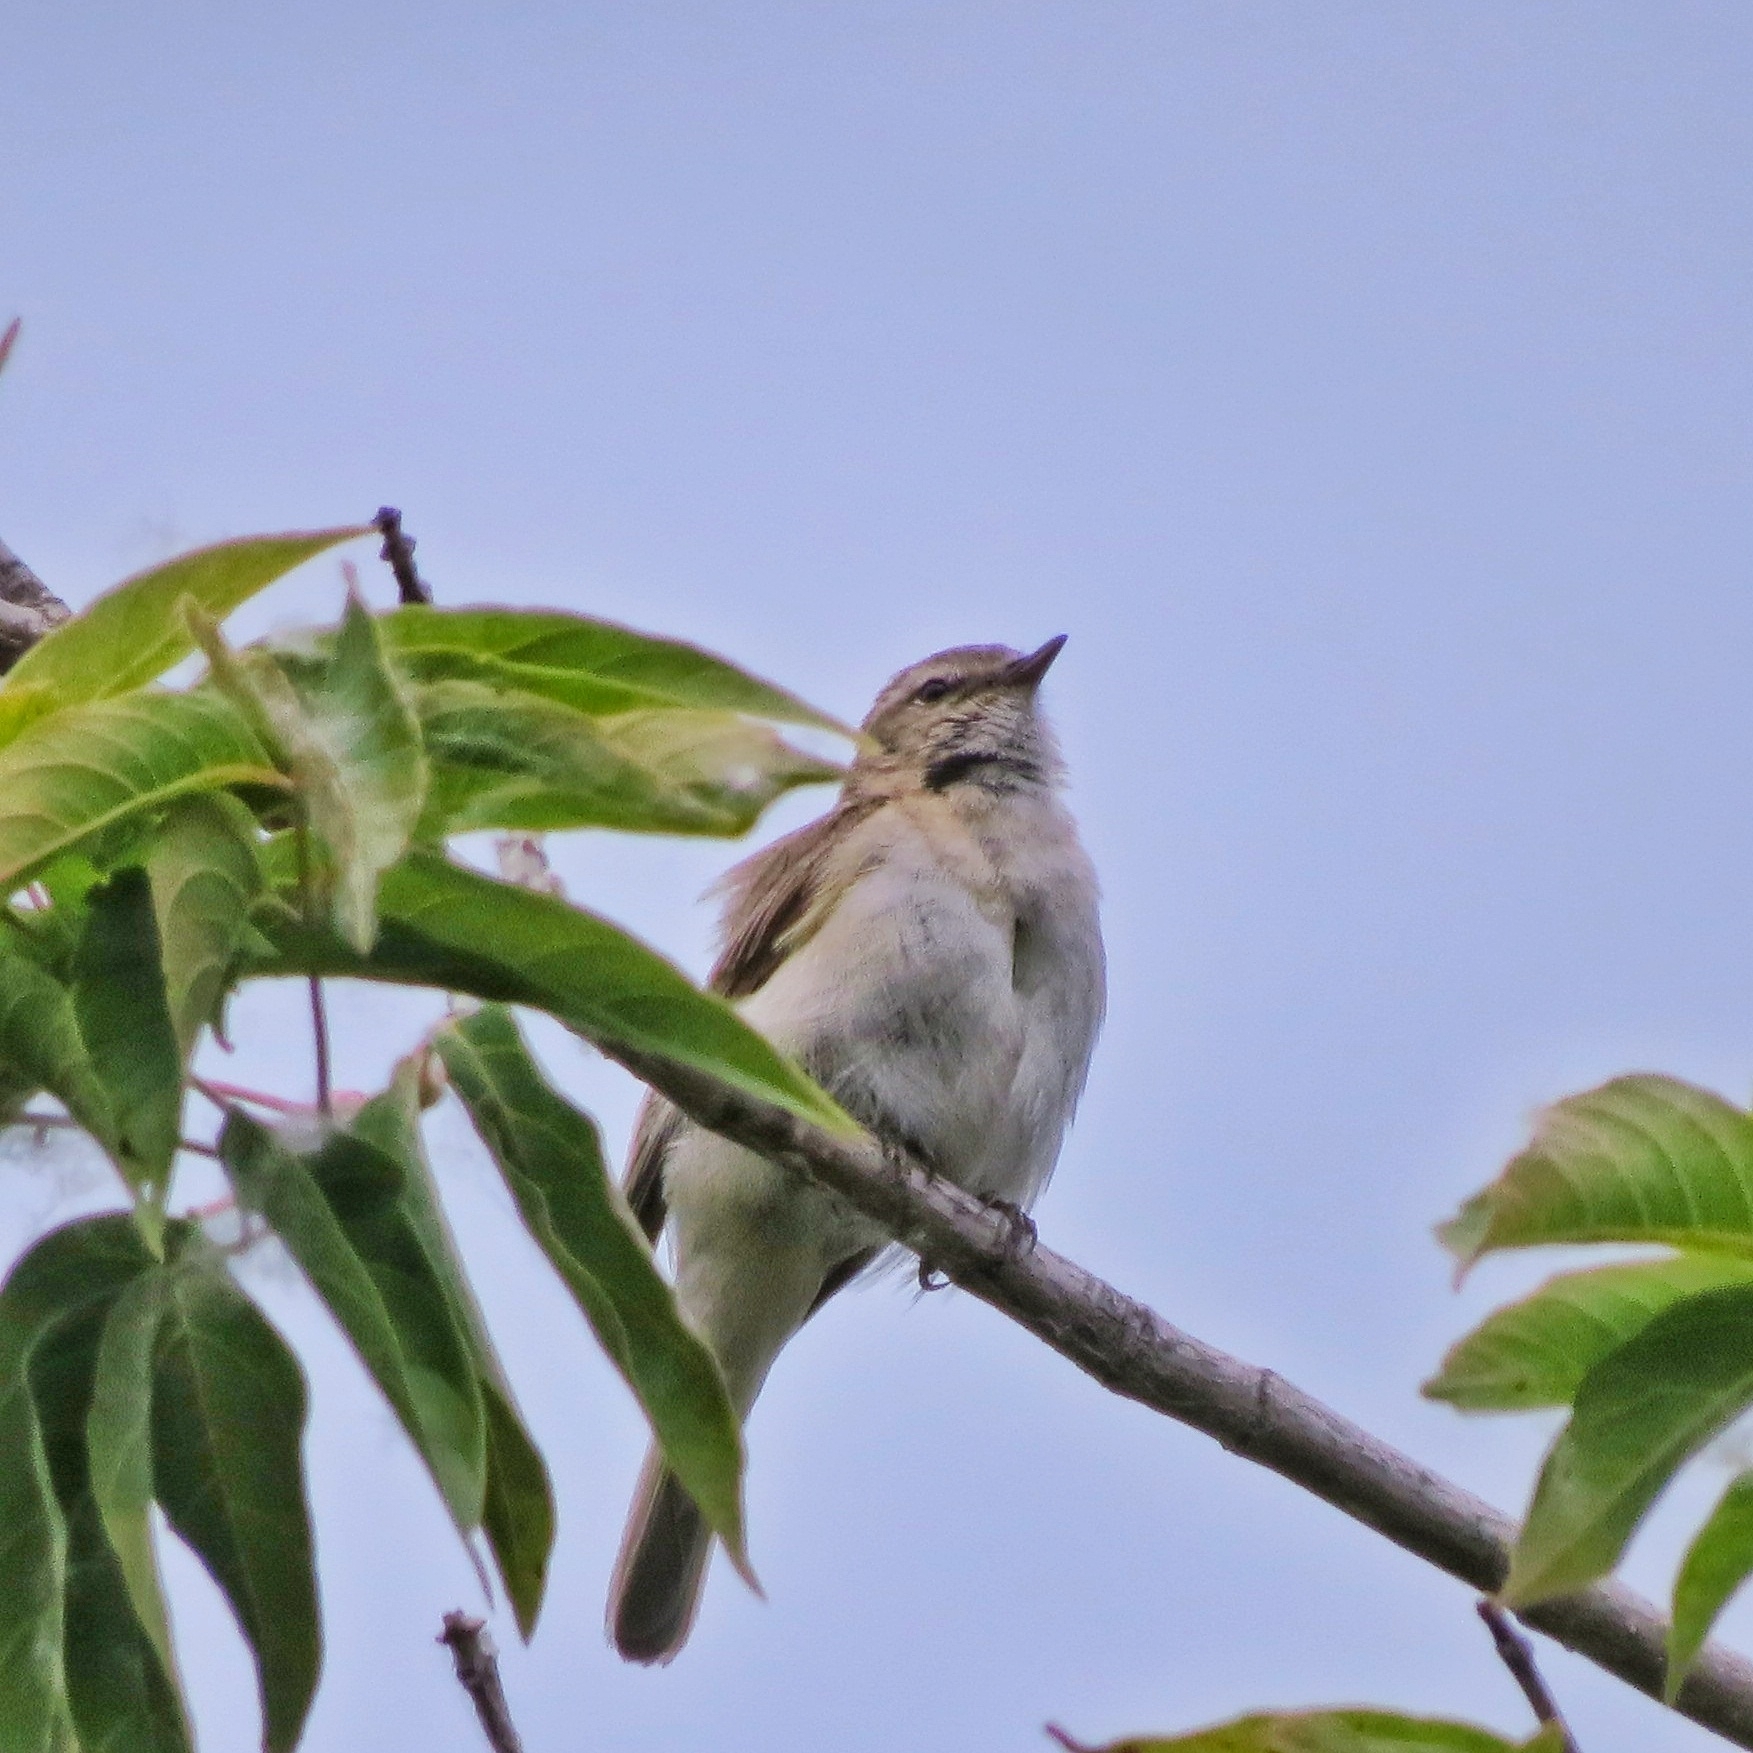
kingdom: Animalia
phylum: Chordata
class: Aves
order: Passeriformes
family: Phylloscopidae
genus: Phylloscopus
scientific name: Phylloscopus collybita
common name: Common chiffchaff
